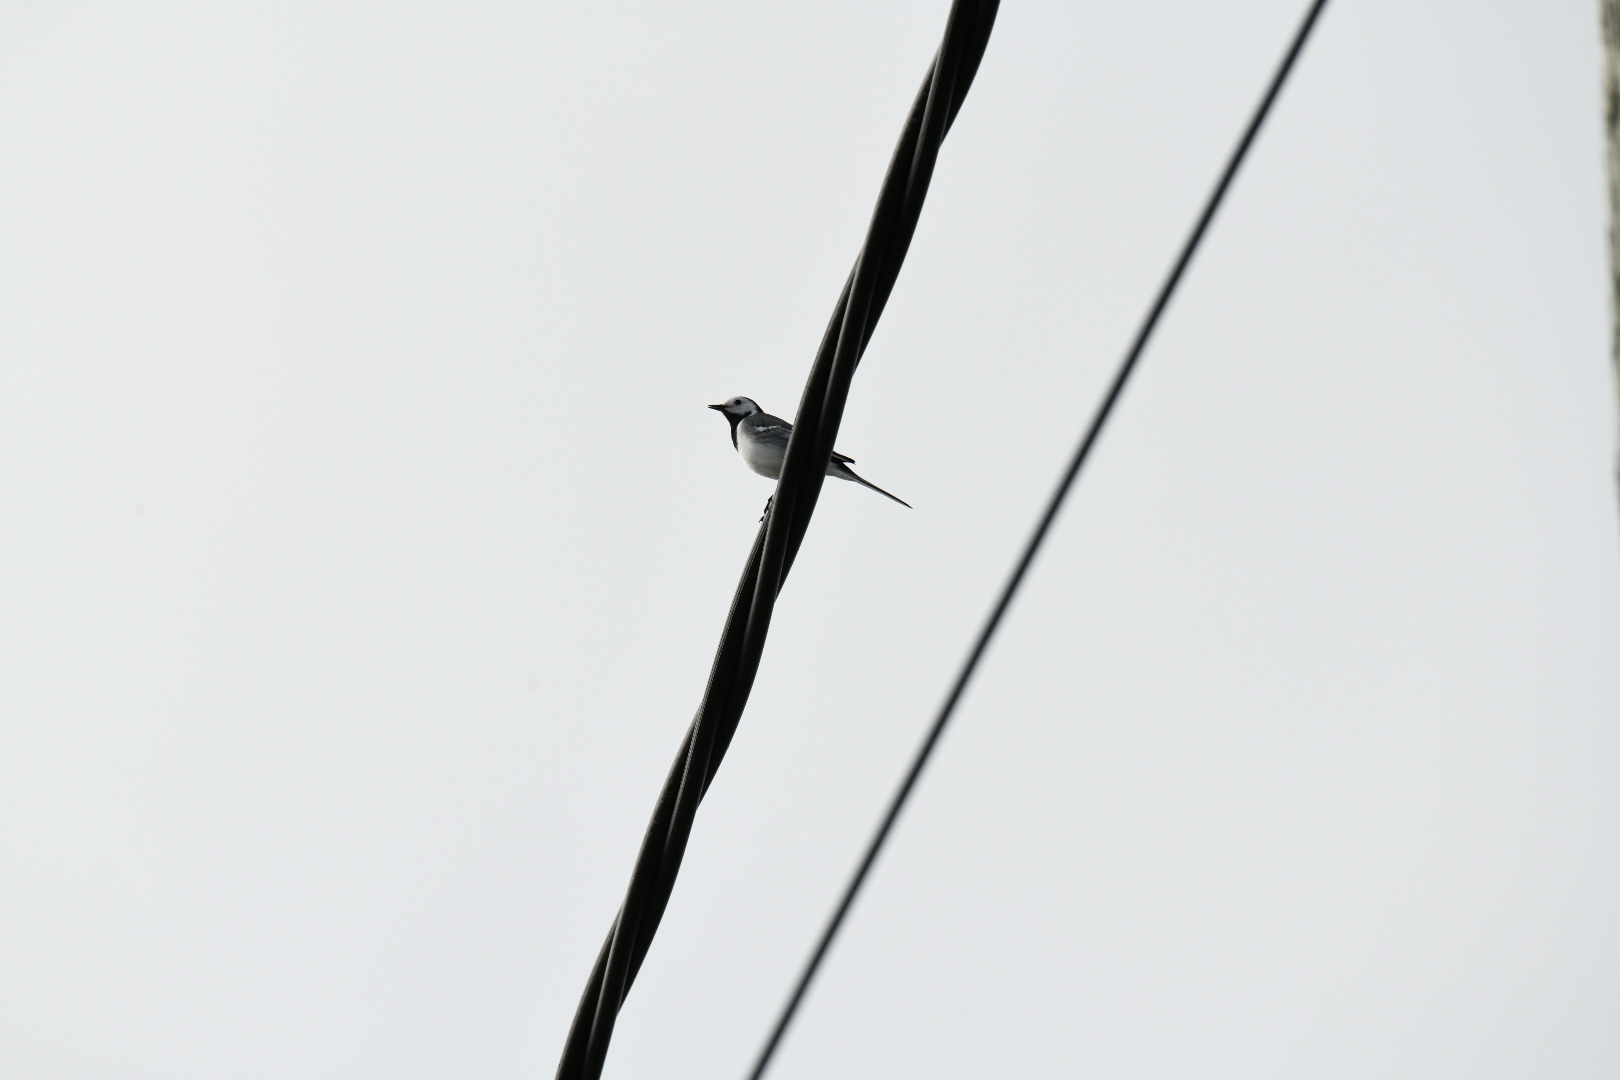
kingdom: Animalia
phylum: Chordata
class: Aves
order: Passeriformes
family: Motacillidae
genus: Motacilla
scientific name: Motacilla alba
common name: White wagtail
